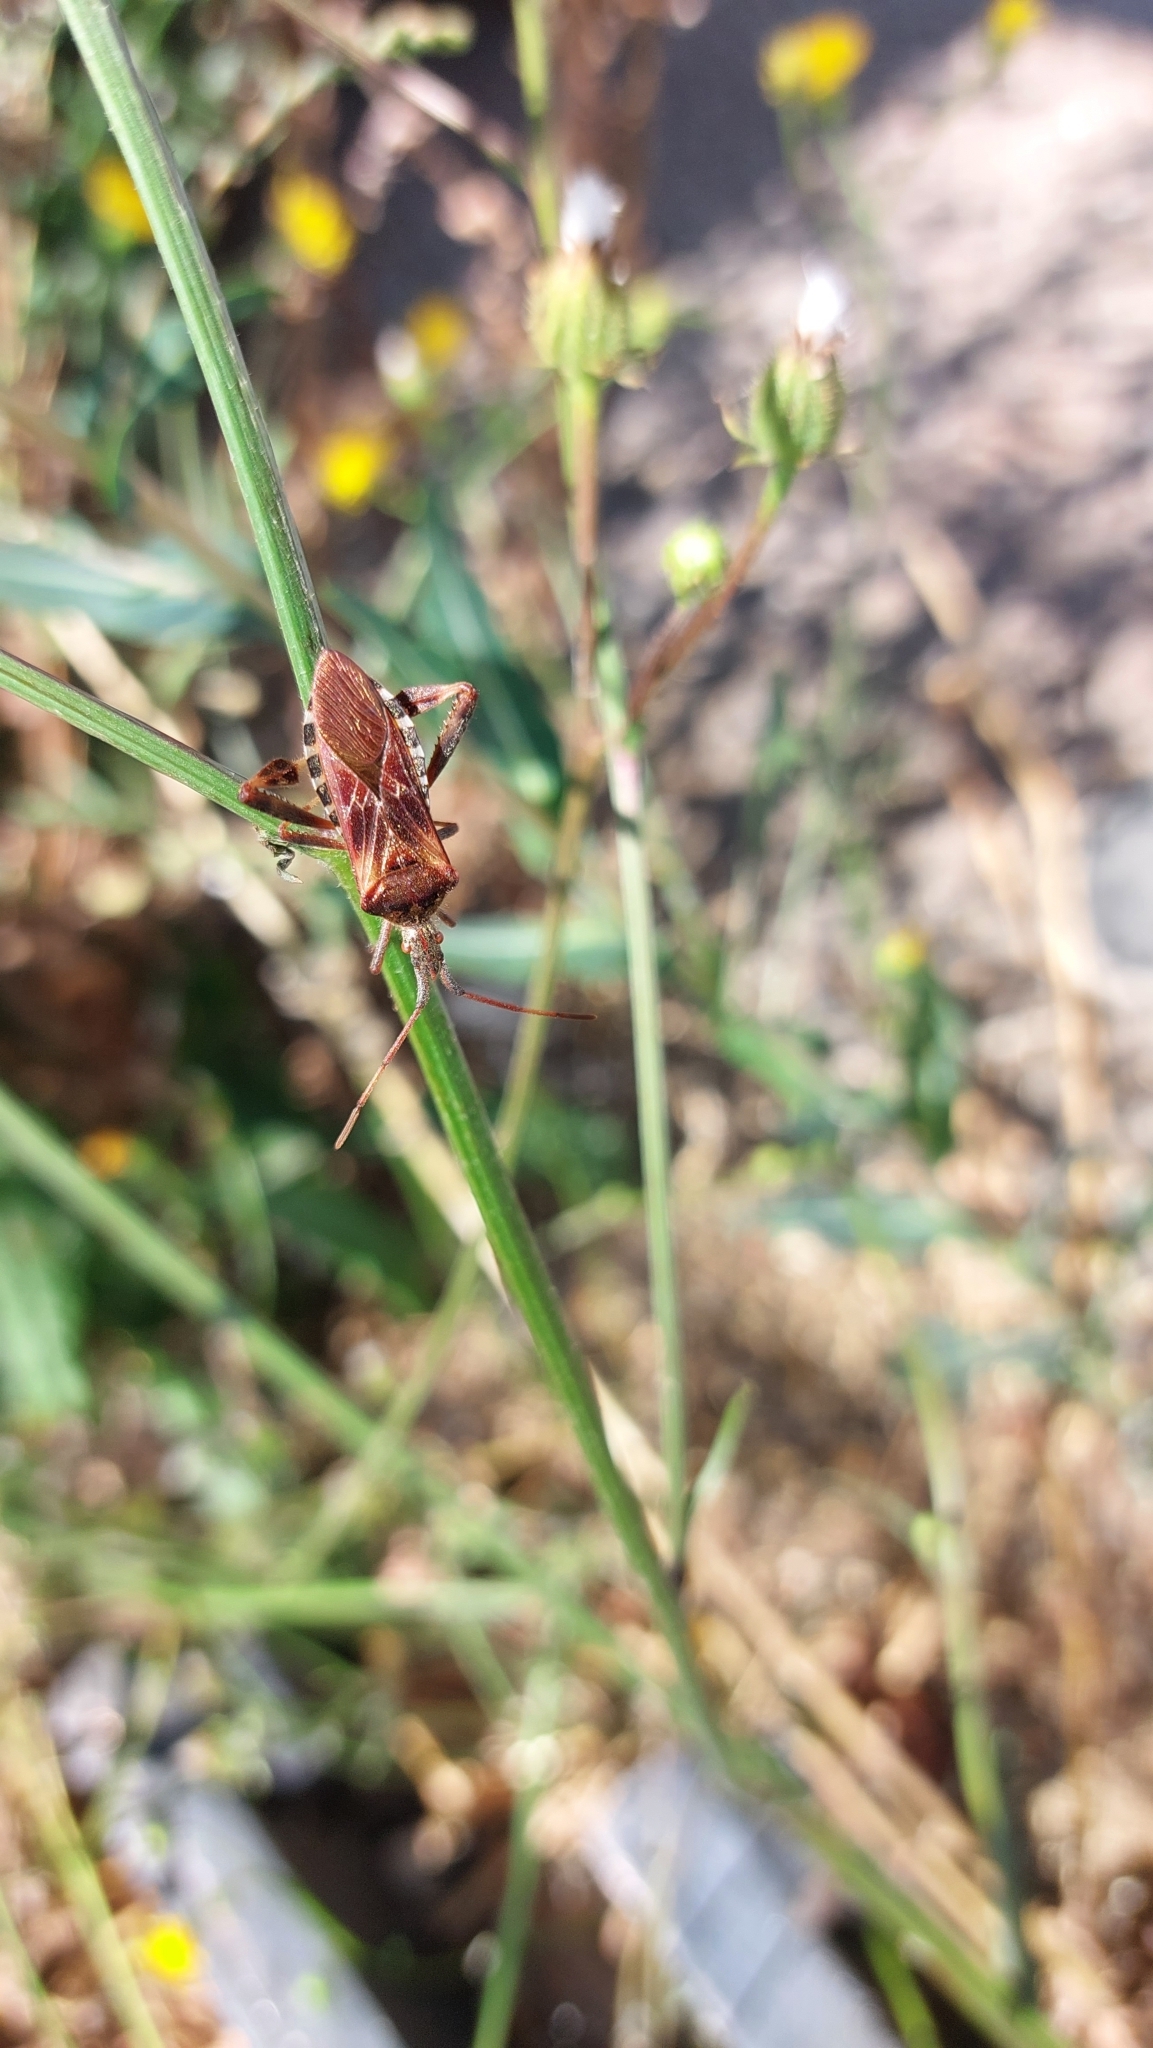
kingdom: Animalia
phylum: Arthropoda
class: Insecta
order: Hemiptera
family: Coreidae
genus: Leptoglossus
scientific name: Leptoglossus occidentalis
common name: Western conifer-seed bug
